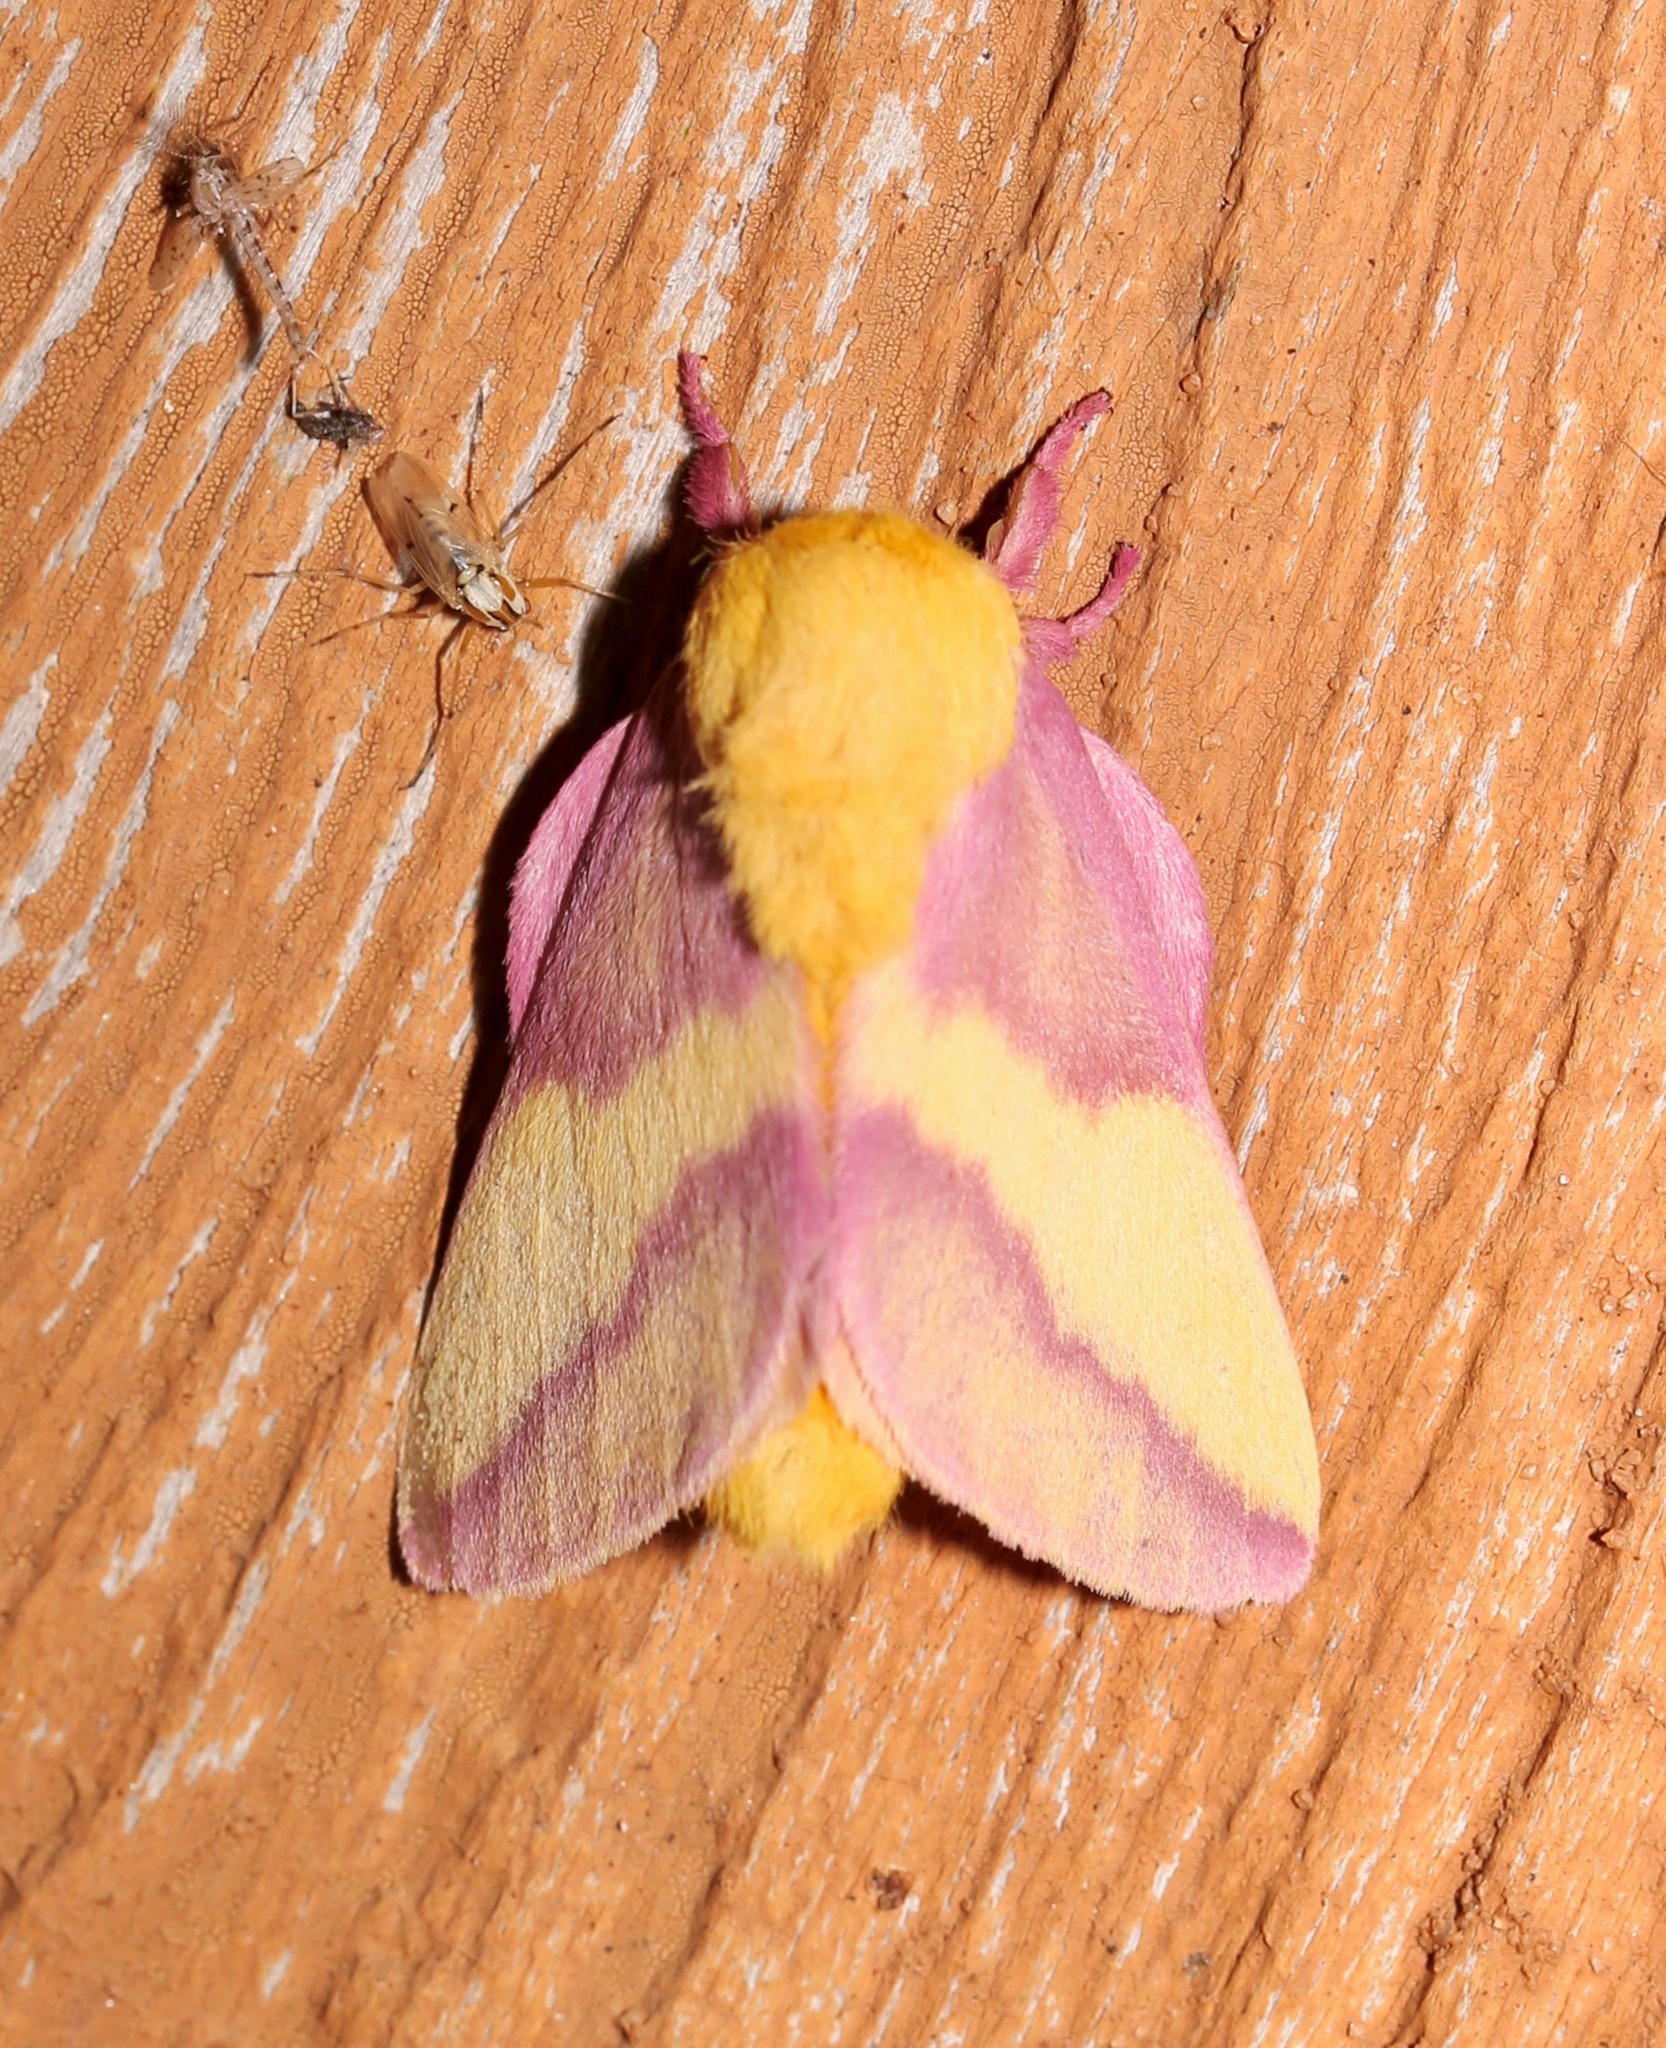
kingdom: Animalia
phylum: Arthropoda
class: Insecta
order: Lepidoptera
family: Saturniidae
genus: Dryocampa
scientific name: Dryocampa rubicunda
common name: Rosy maple moth
